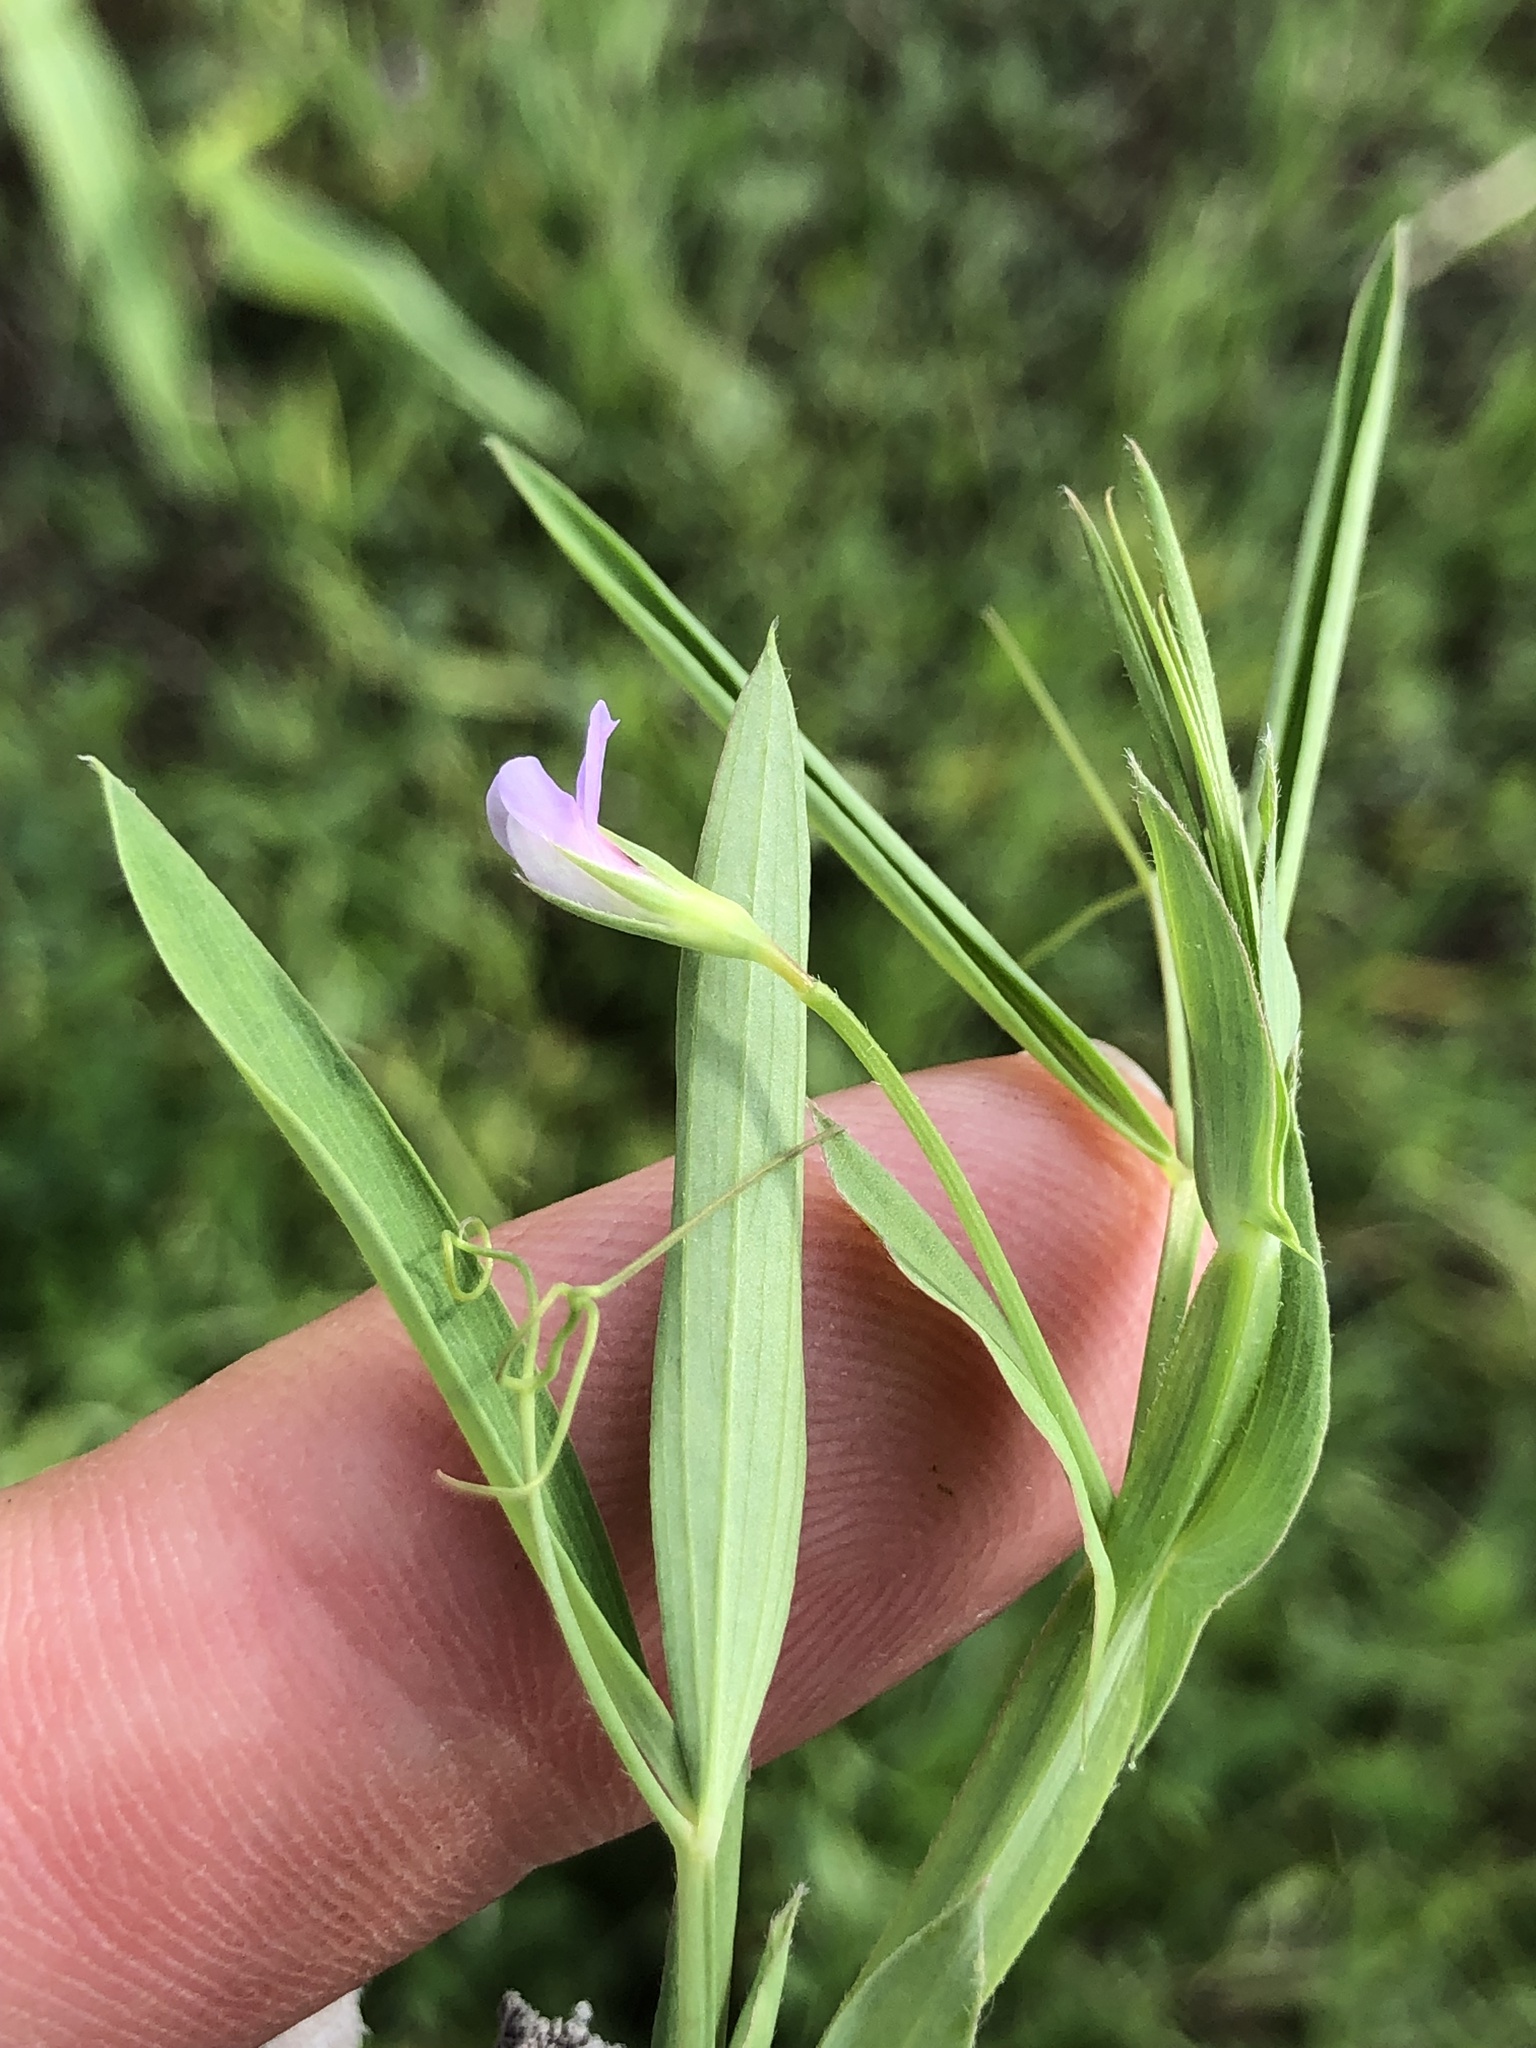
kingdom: Plantae
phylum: Tracheophyta
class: Magnoliopsida
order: Fabales
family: Fabaceae
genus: Lathyrus
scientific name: Lathyrus pusillus
